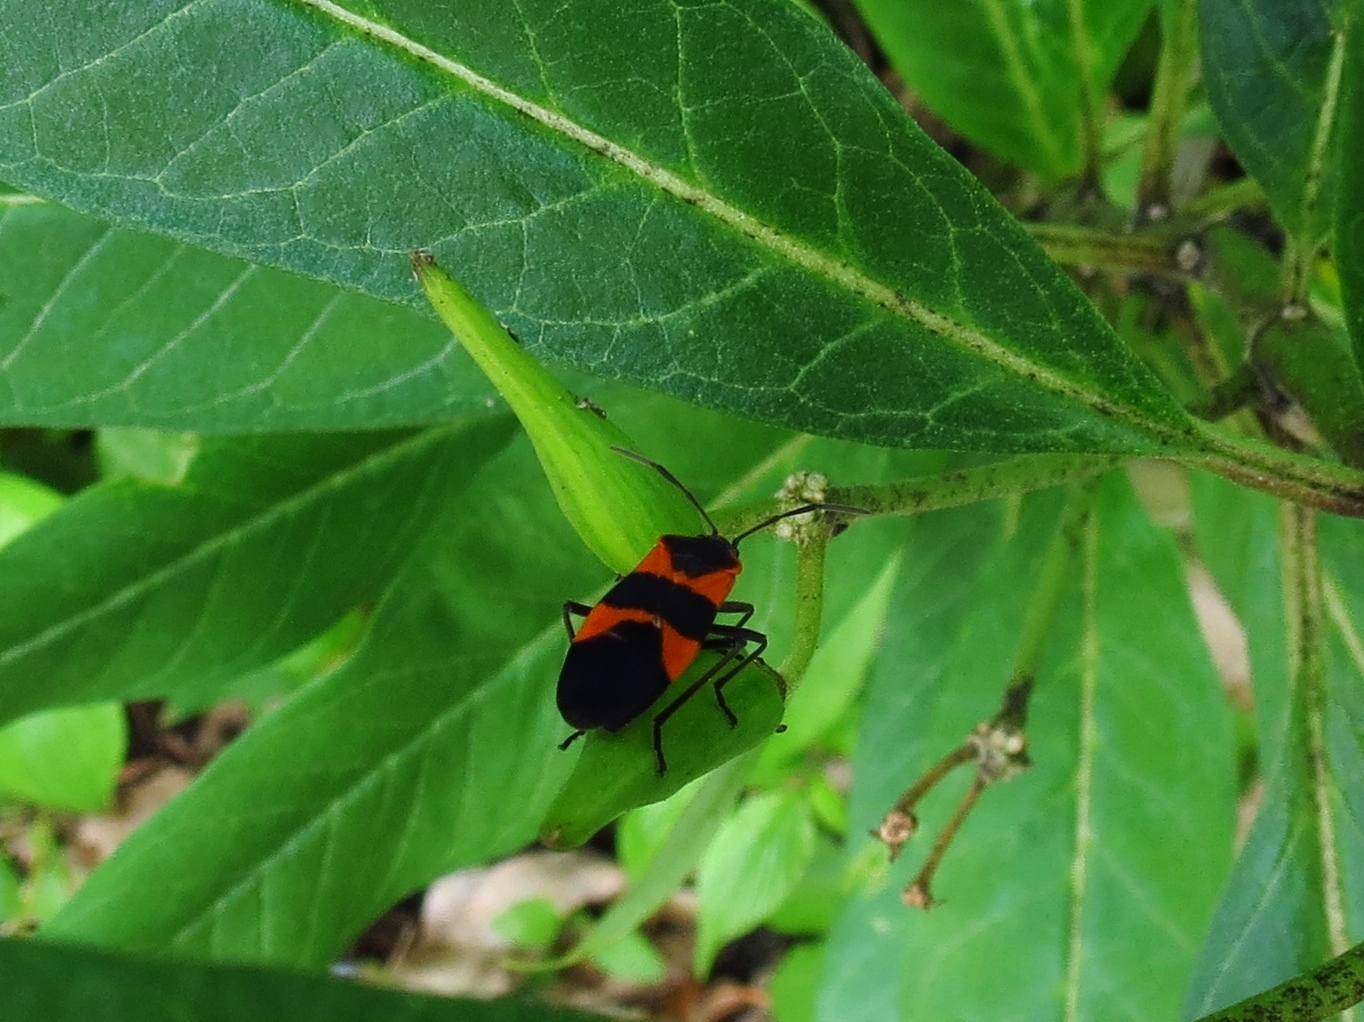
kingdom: Animalia
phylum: Arthropoda
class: Insecta
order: Hemiptera
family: Lygaeidae
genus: Oncopeltus
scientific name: Oncopeltus fasciatus
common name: Large milkweed bug
